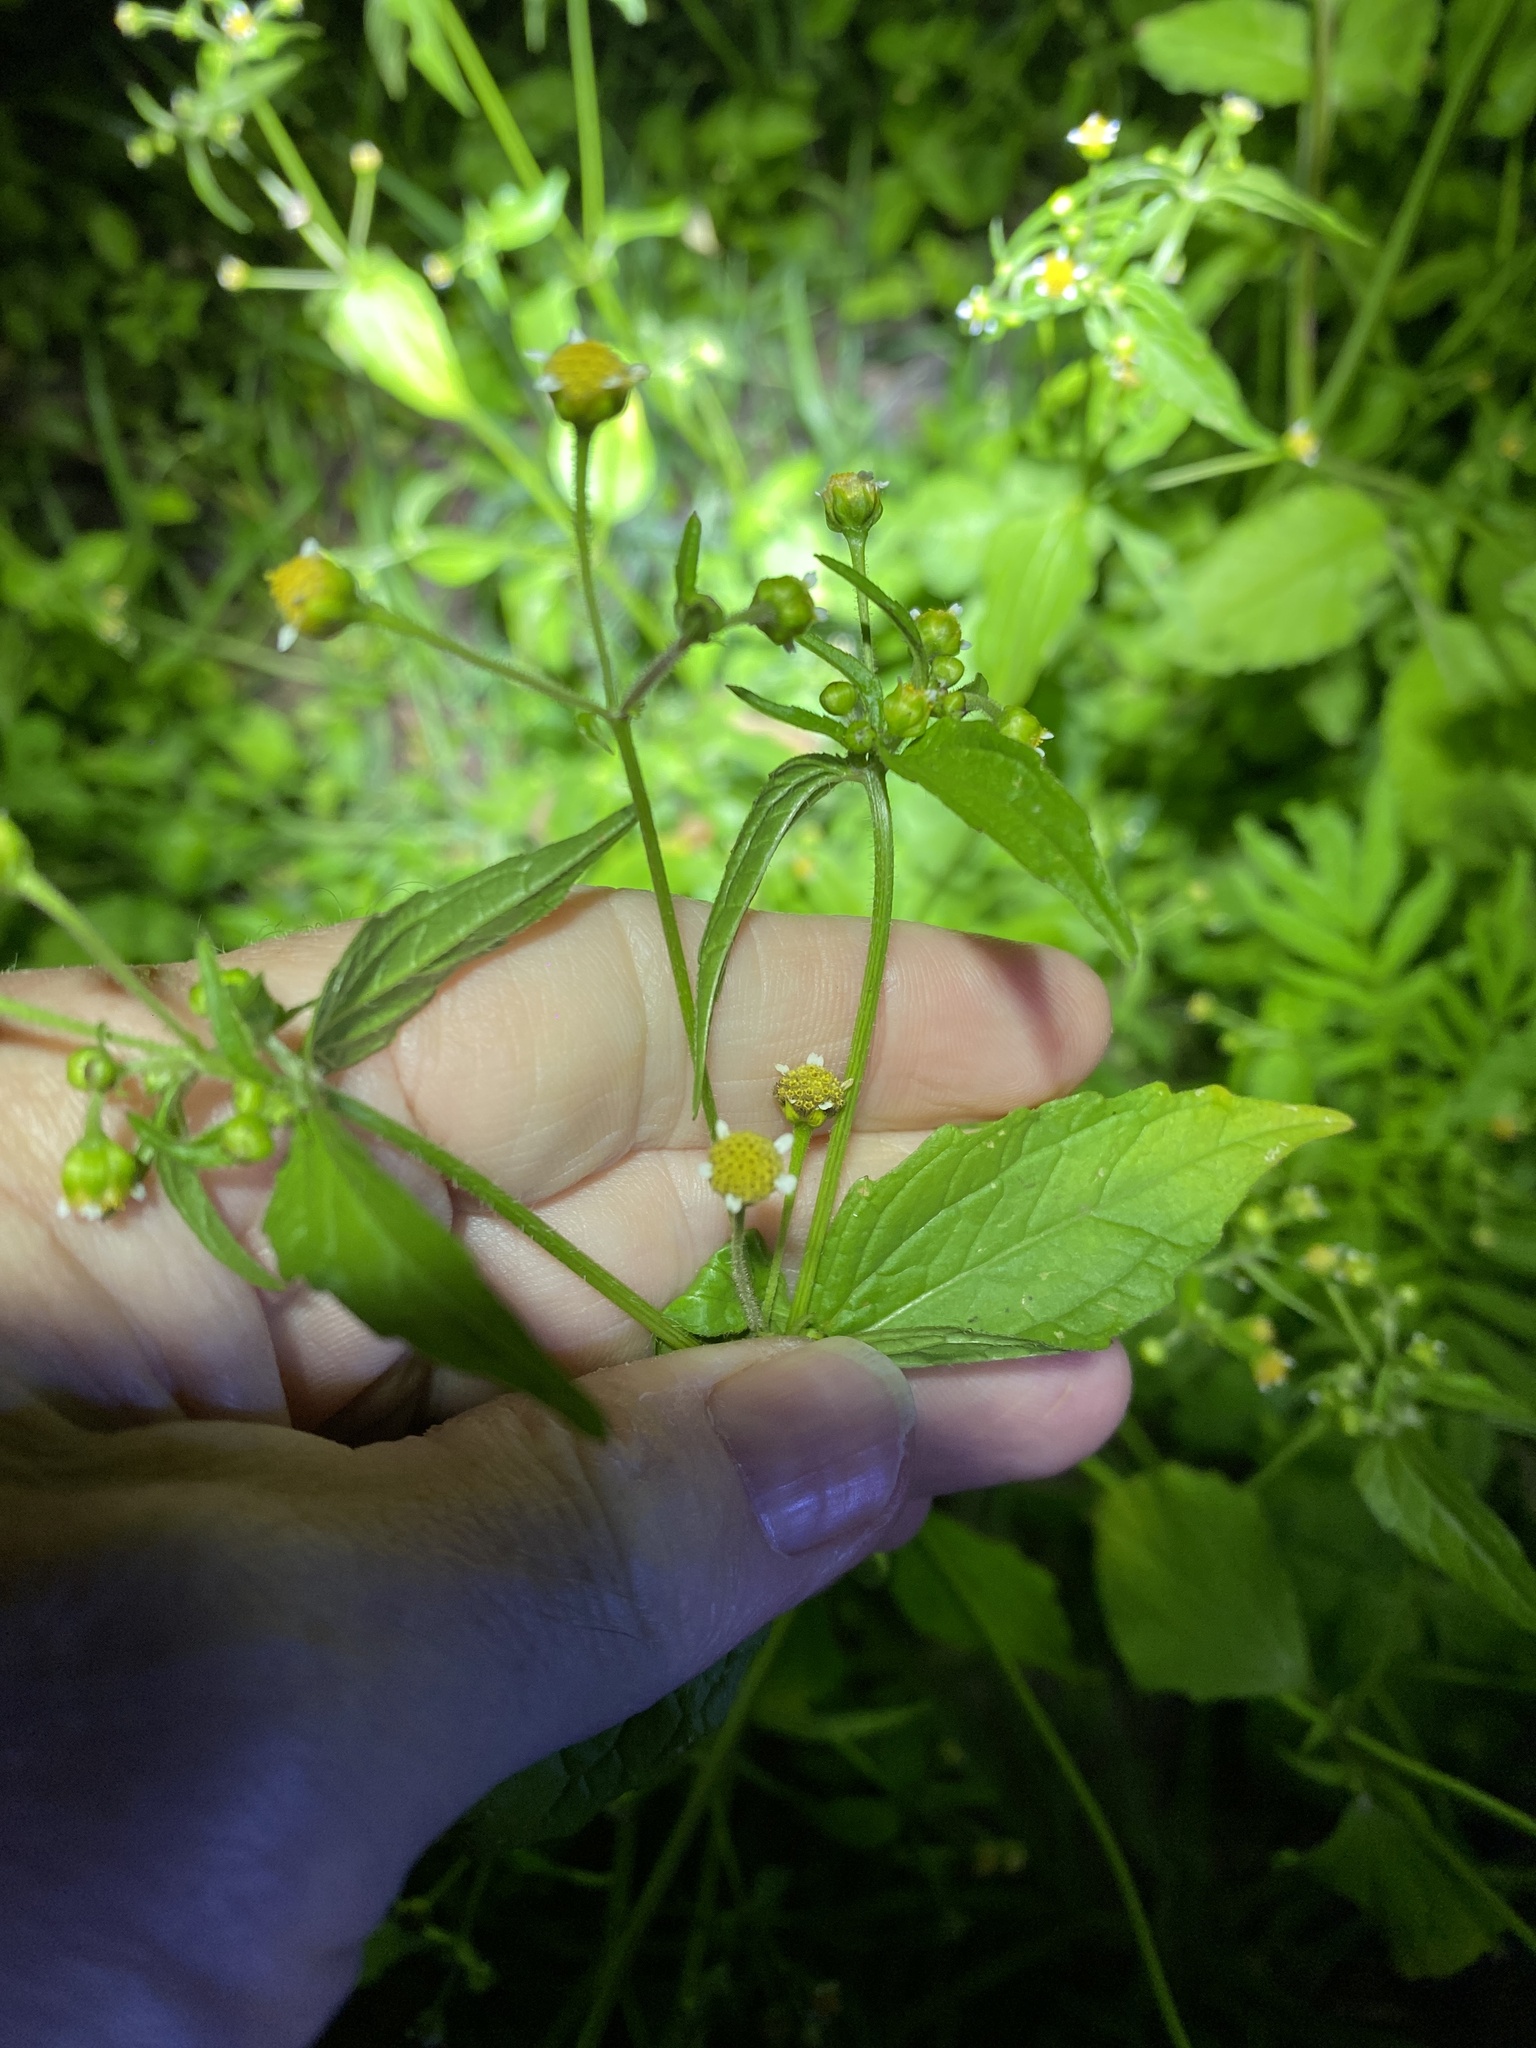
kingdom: Plantae
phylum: Tracheophyta
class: Magnoliopsida
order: Asterales
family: Asteraceae
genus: Galinsoga
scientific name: Galinsoga parviflora
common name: Gallant soldier
